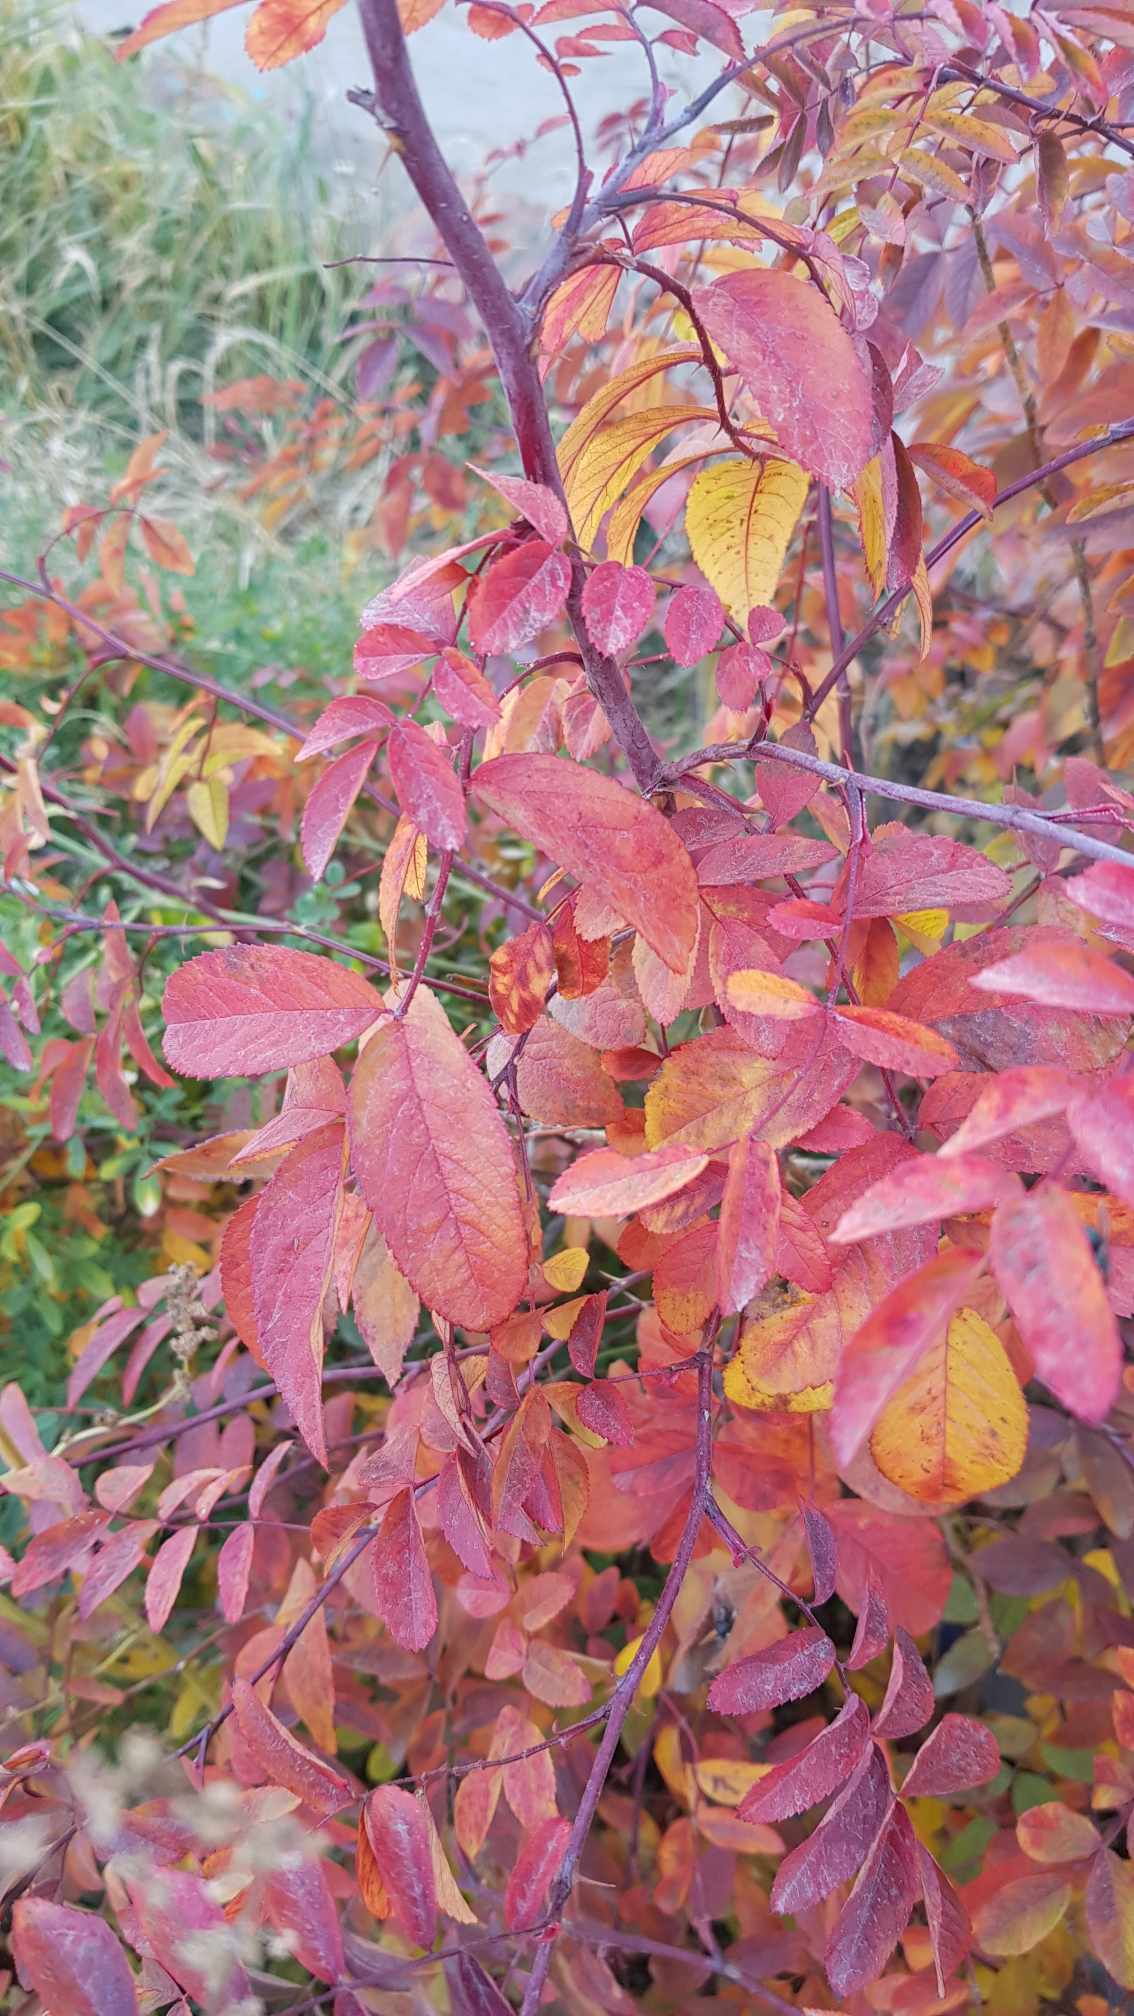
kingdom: Plantae
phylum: Tracheophyta
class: Magnoliopsida
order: Rosales
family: Rosaceae
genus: Rosa
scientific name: Rosa davurica
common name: Amur rose
